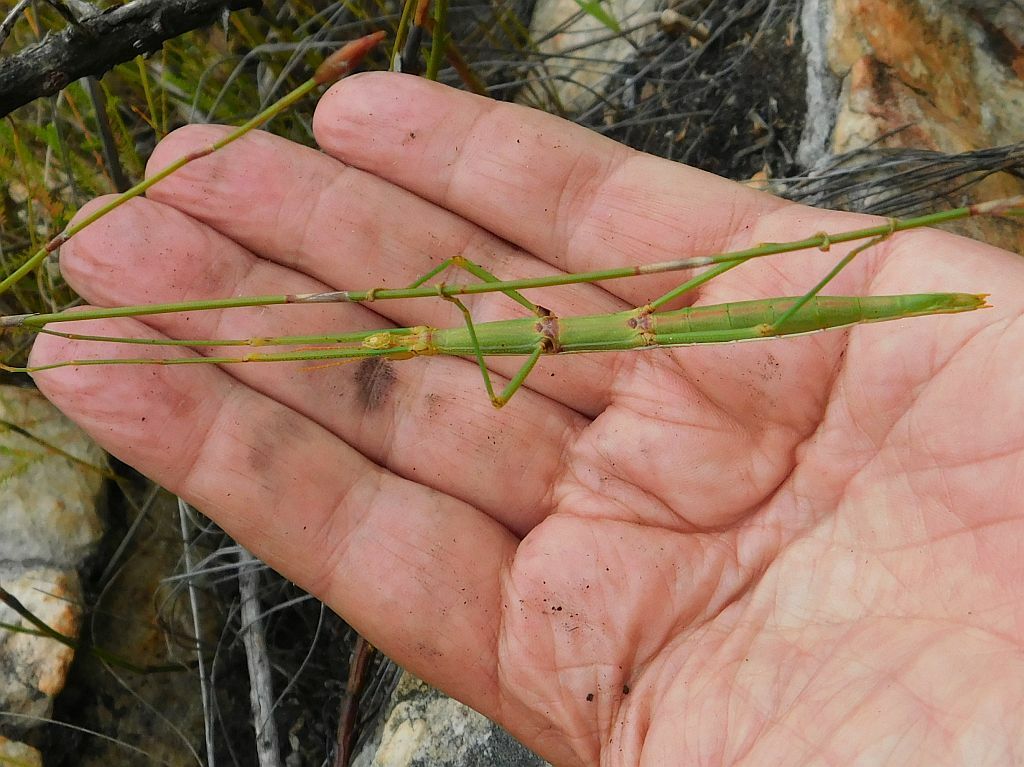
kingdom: Animalia
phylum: Arthropoda
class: Insecta
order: Phasmida
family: Bacillidae
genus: Macynia
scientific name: Macynia labiata
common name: Thunberg's stick insect
